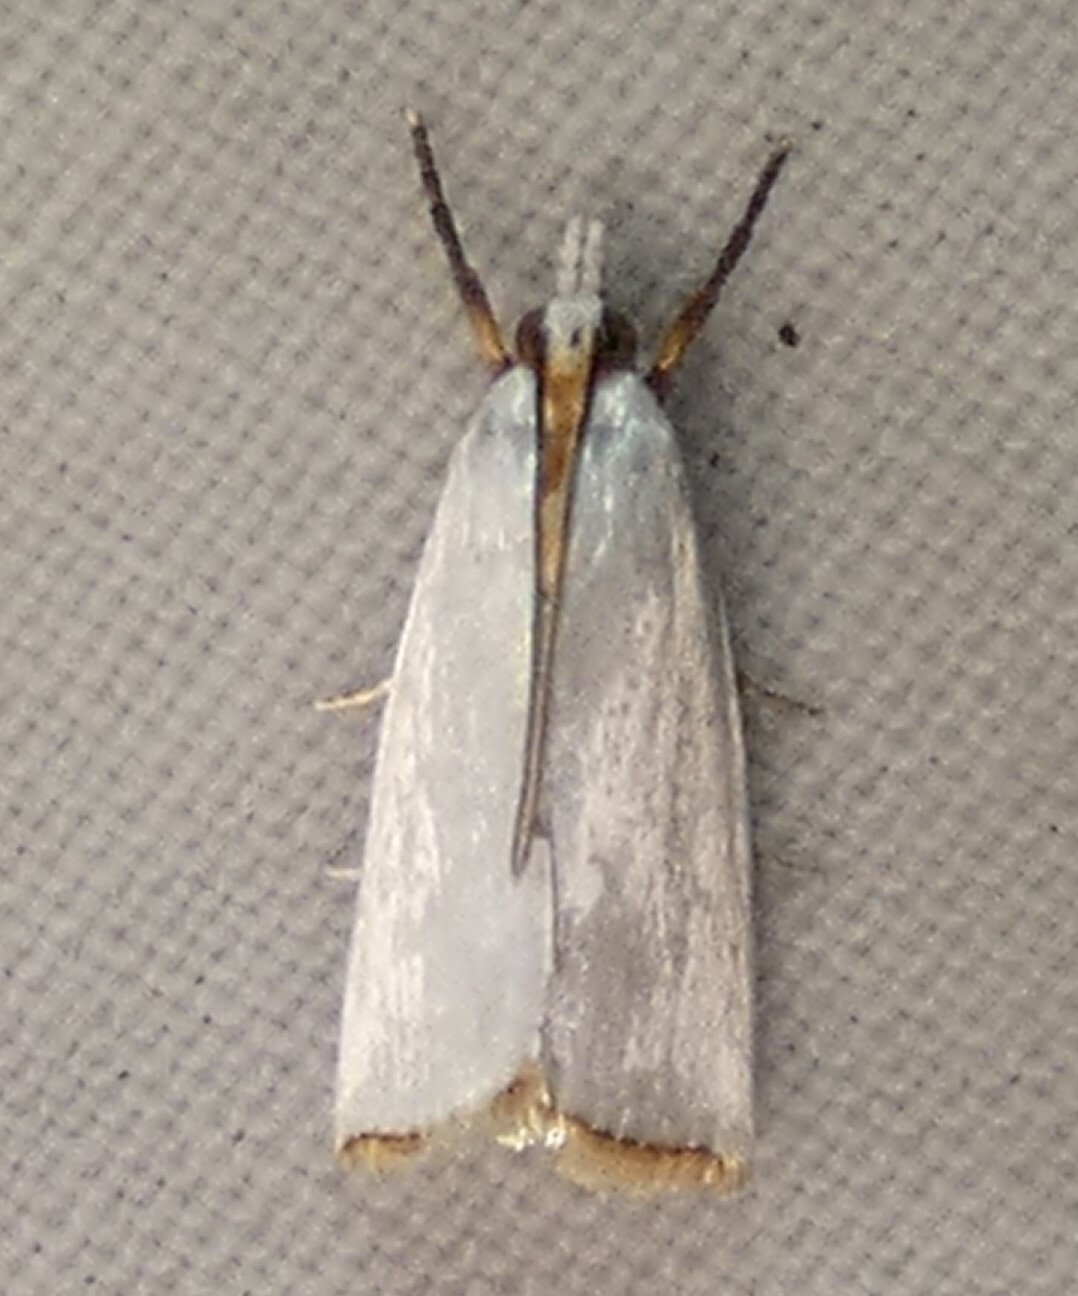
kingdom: Animalia
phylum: Arthropoda
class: Insecta
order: Lepidoptera
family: Crambidae
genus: Argyria
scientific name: Argyria nivalis
